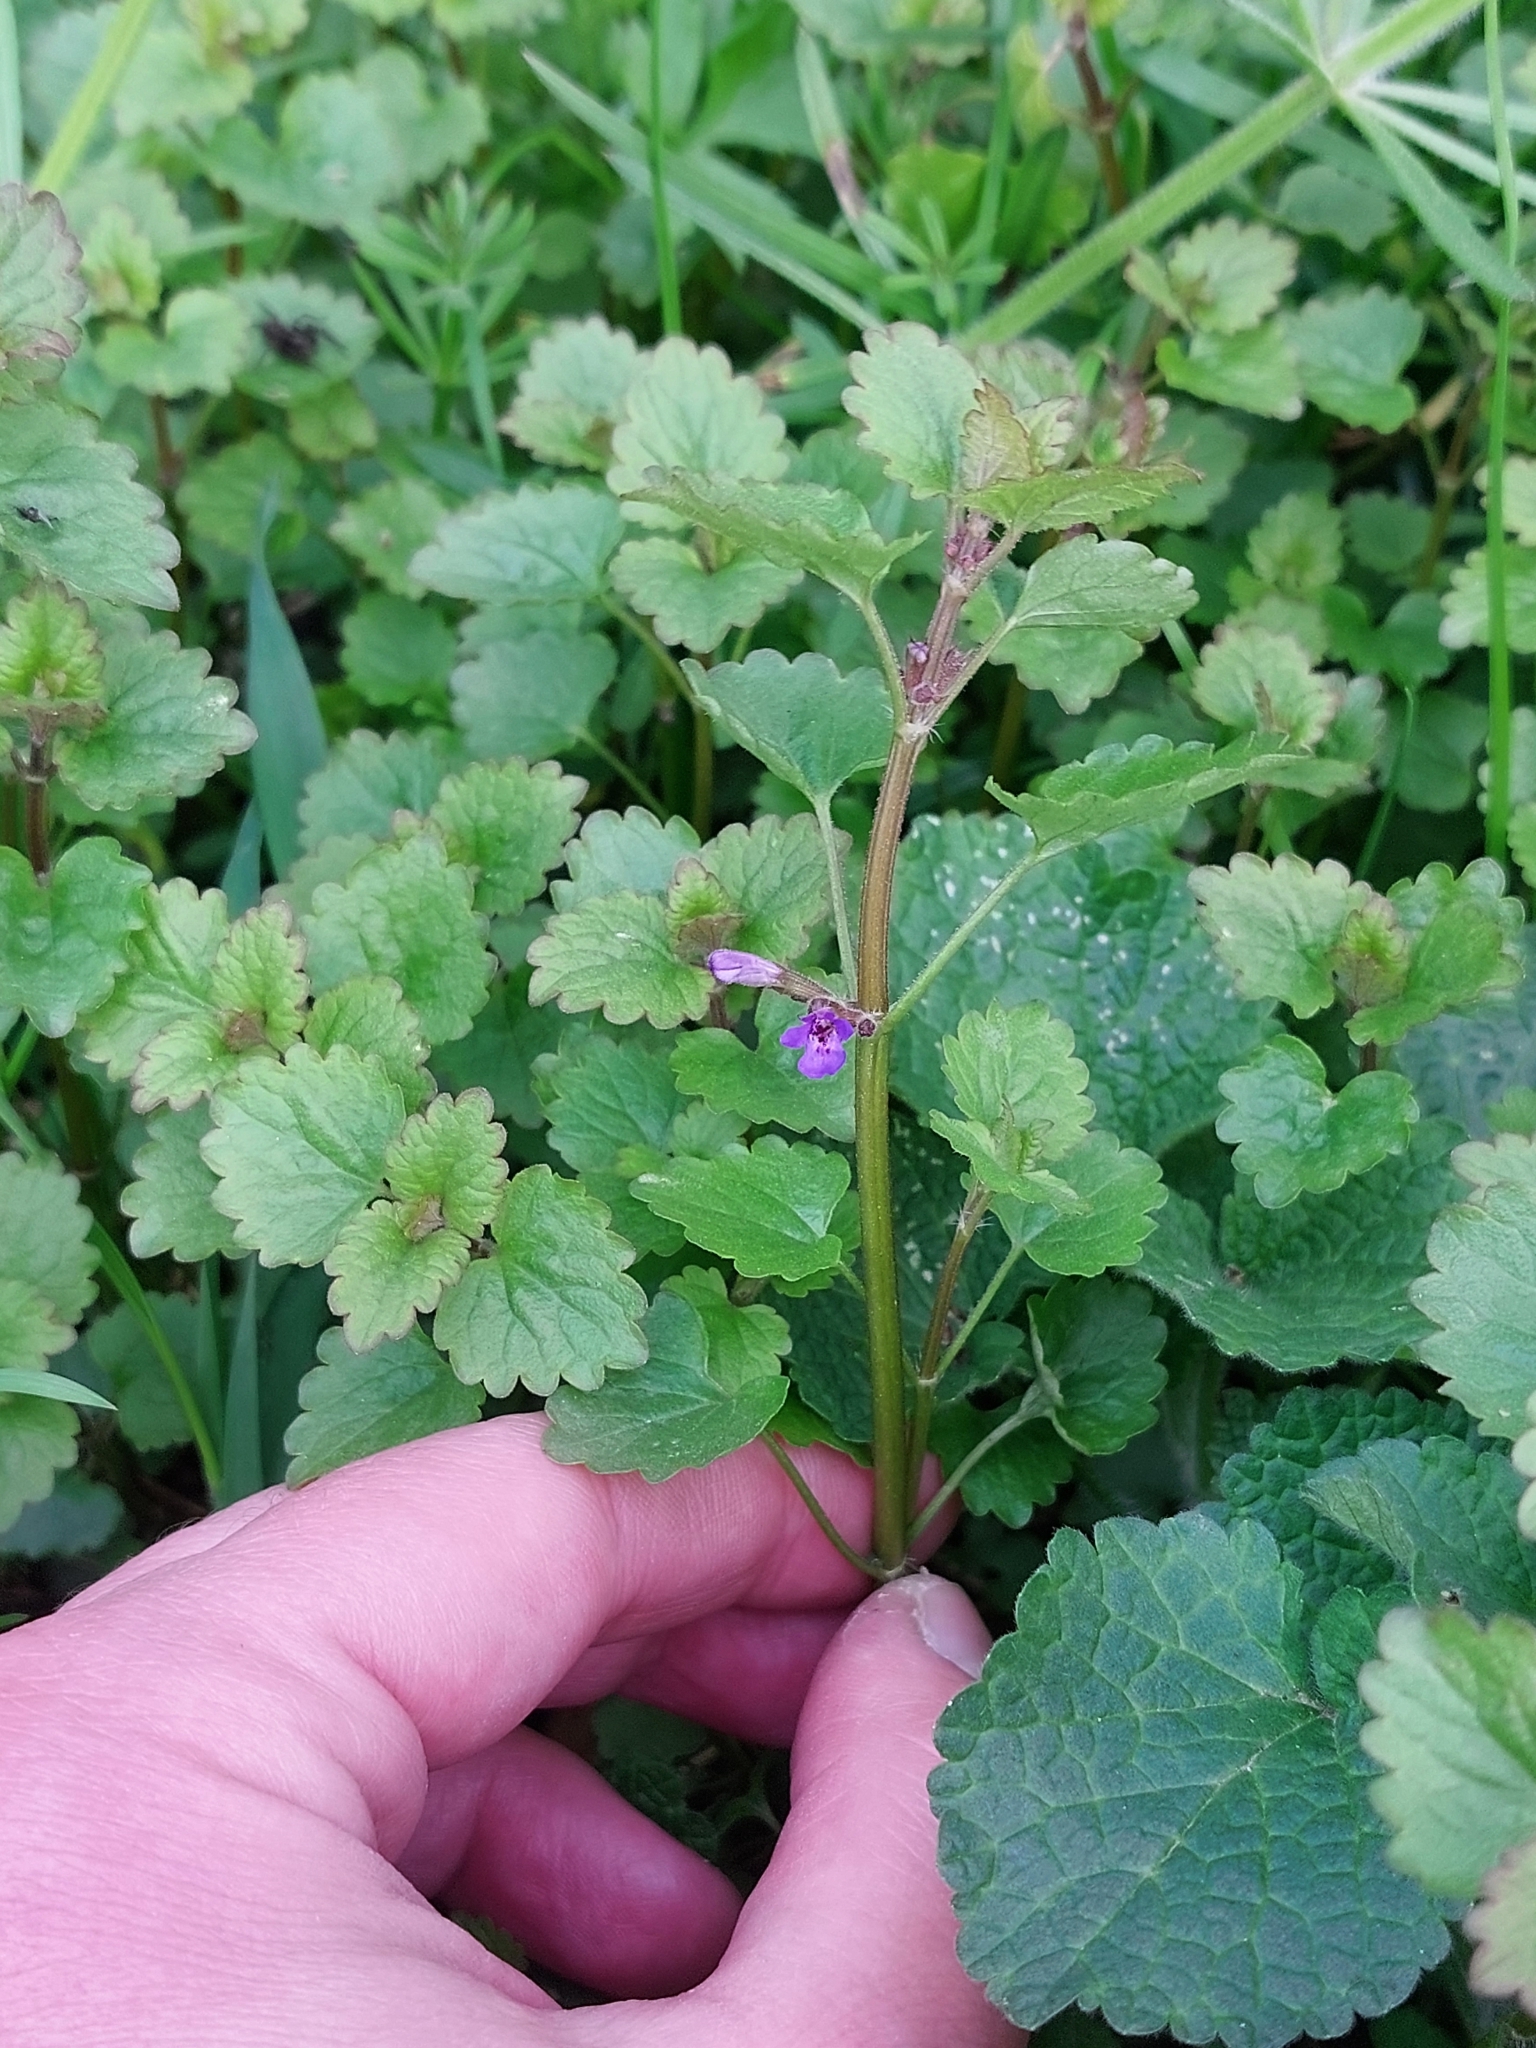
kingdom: Plantae
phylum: Tracheophyta
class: Magnoliopsida
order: Lamiales
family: Lamiaceae
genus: Glechoma
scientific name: Glechoma hederacea
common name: Ground ivy
